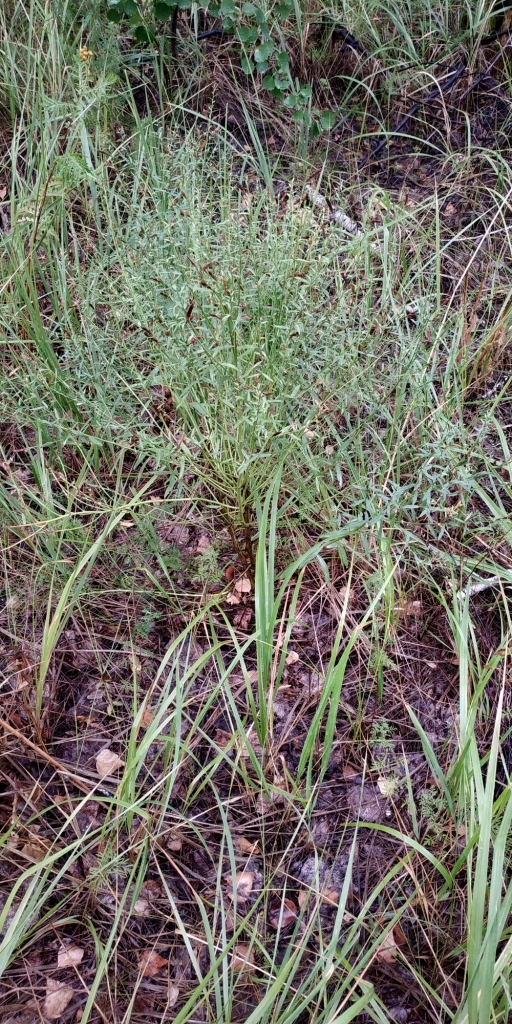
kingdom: Plantae
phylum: Tracheophyta
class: Magnoliopsida
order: Fabales
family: Fabaceae
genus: Genista
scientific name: Genista tinctoria
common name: Dyer's greenweed
